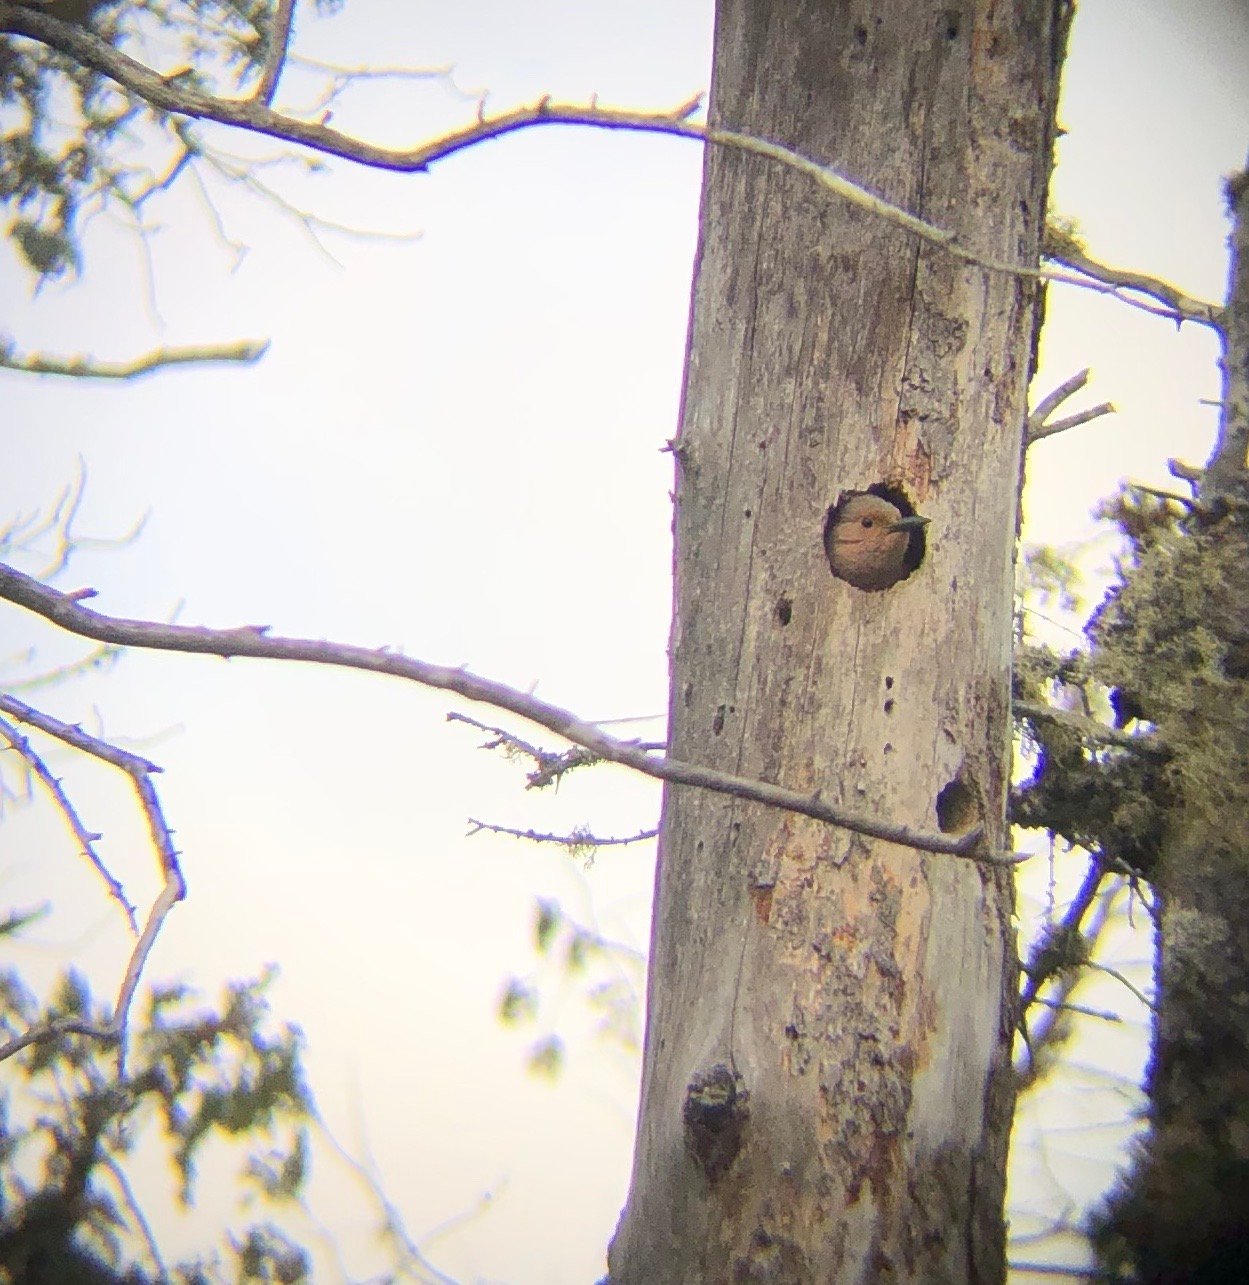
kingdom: Animalia
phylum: Chordata
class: Aves
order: Piciformes
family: Picidae
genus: Colaptes
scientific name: Colaptes auratus
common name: Northern flicker
